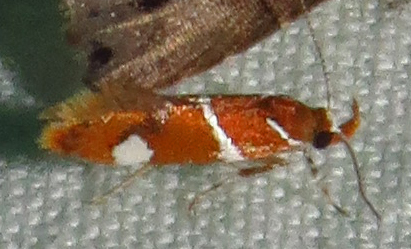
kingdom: Animalia
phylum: Arthropoda
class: Insecta
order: Lepidoptera
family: Oecophoridae
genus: Promalactis
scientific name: Promalactis suzukiella
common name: Moth
